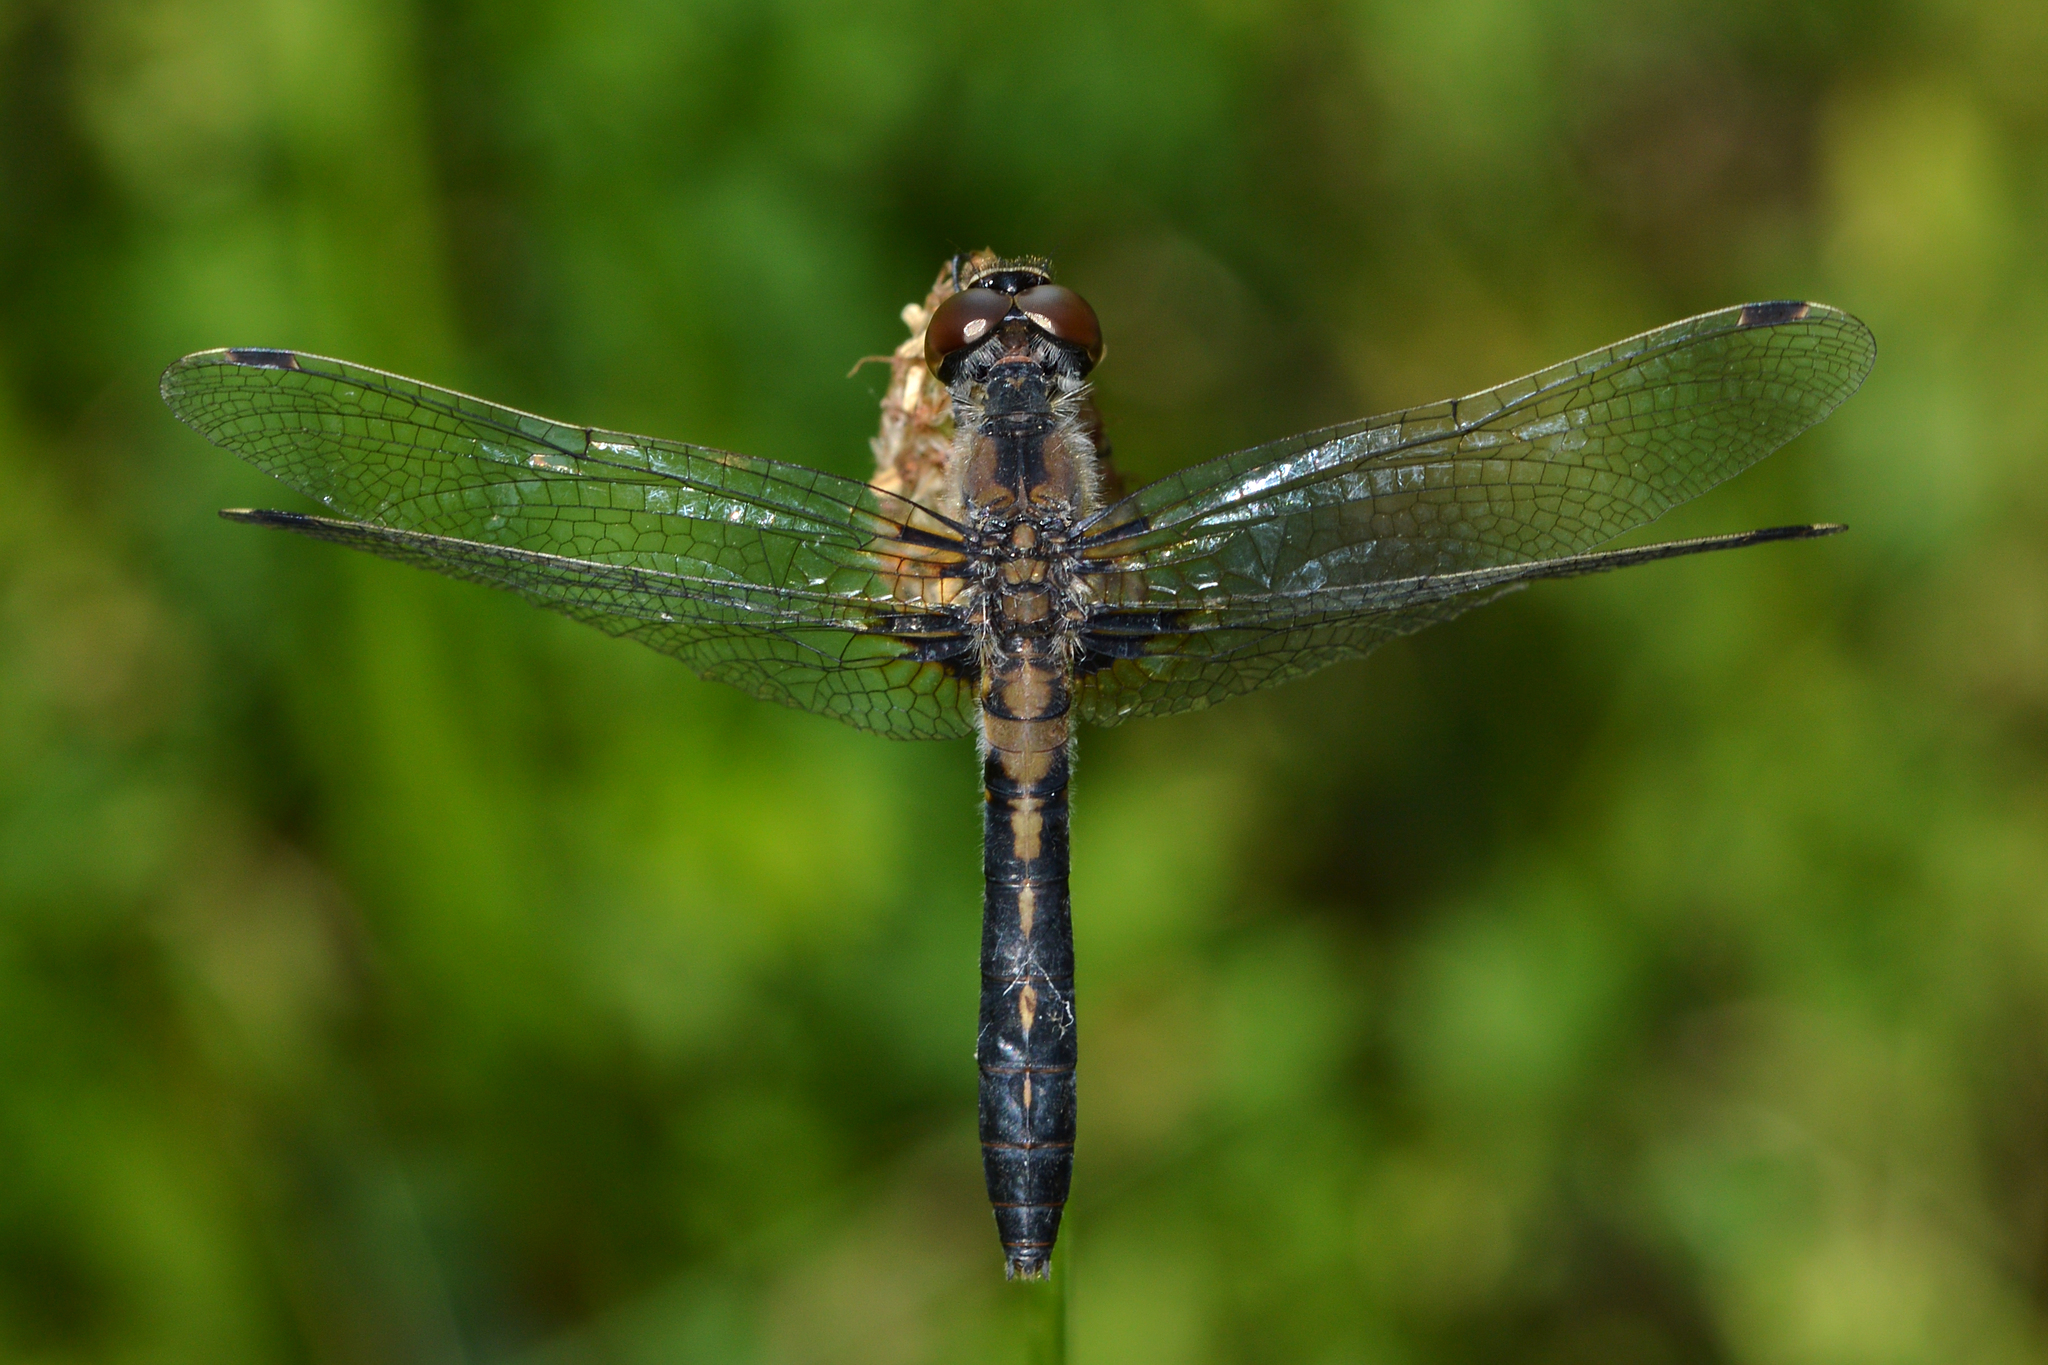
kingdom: Animalia
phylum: Arthropoda
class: Insecta
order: Odonata
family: Libellulidae
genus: Leucorrhinia
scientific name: Leucorrhinia frigida
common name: Frosted whiteface
